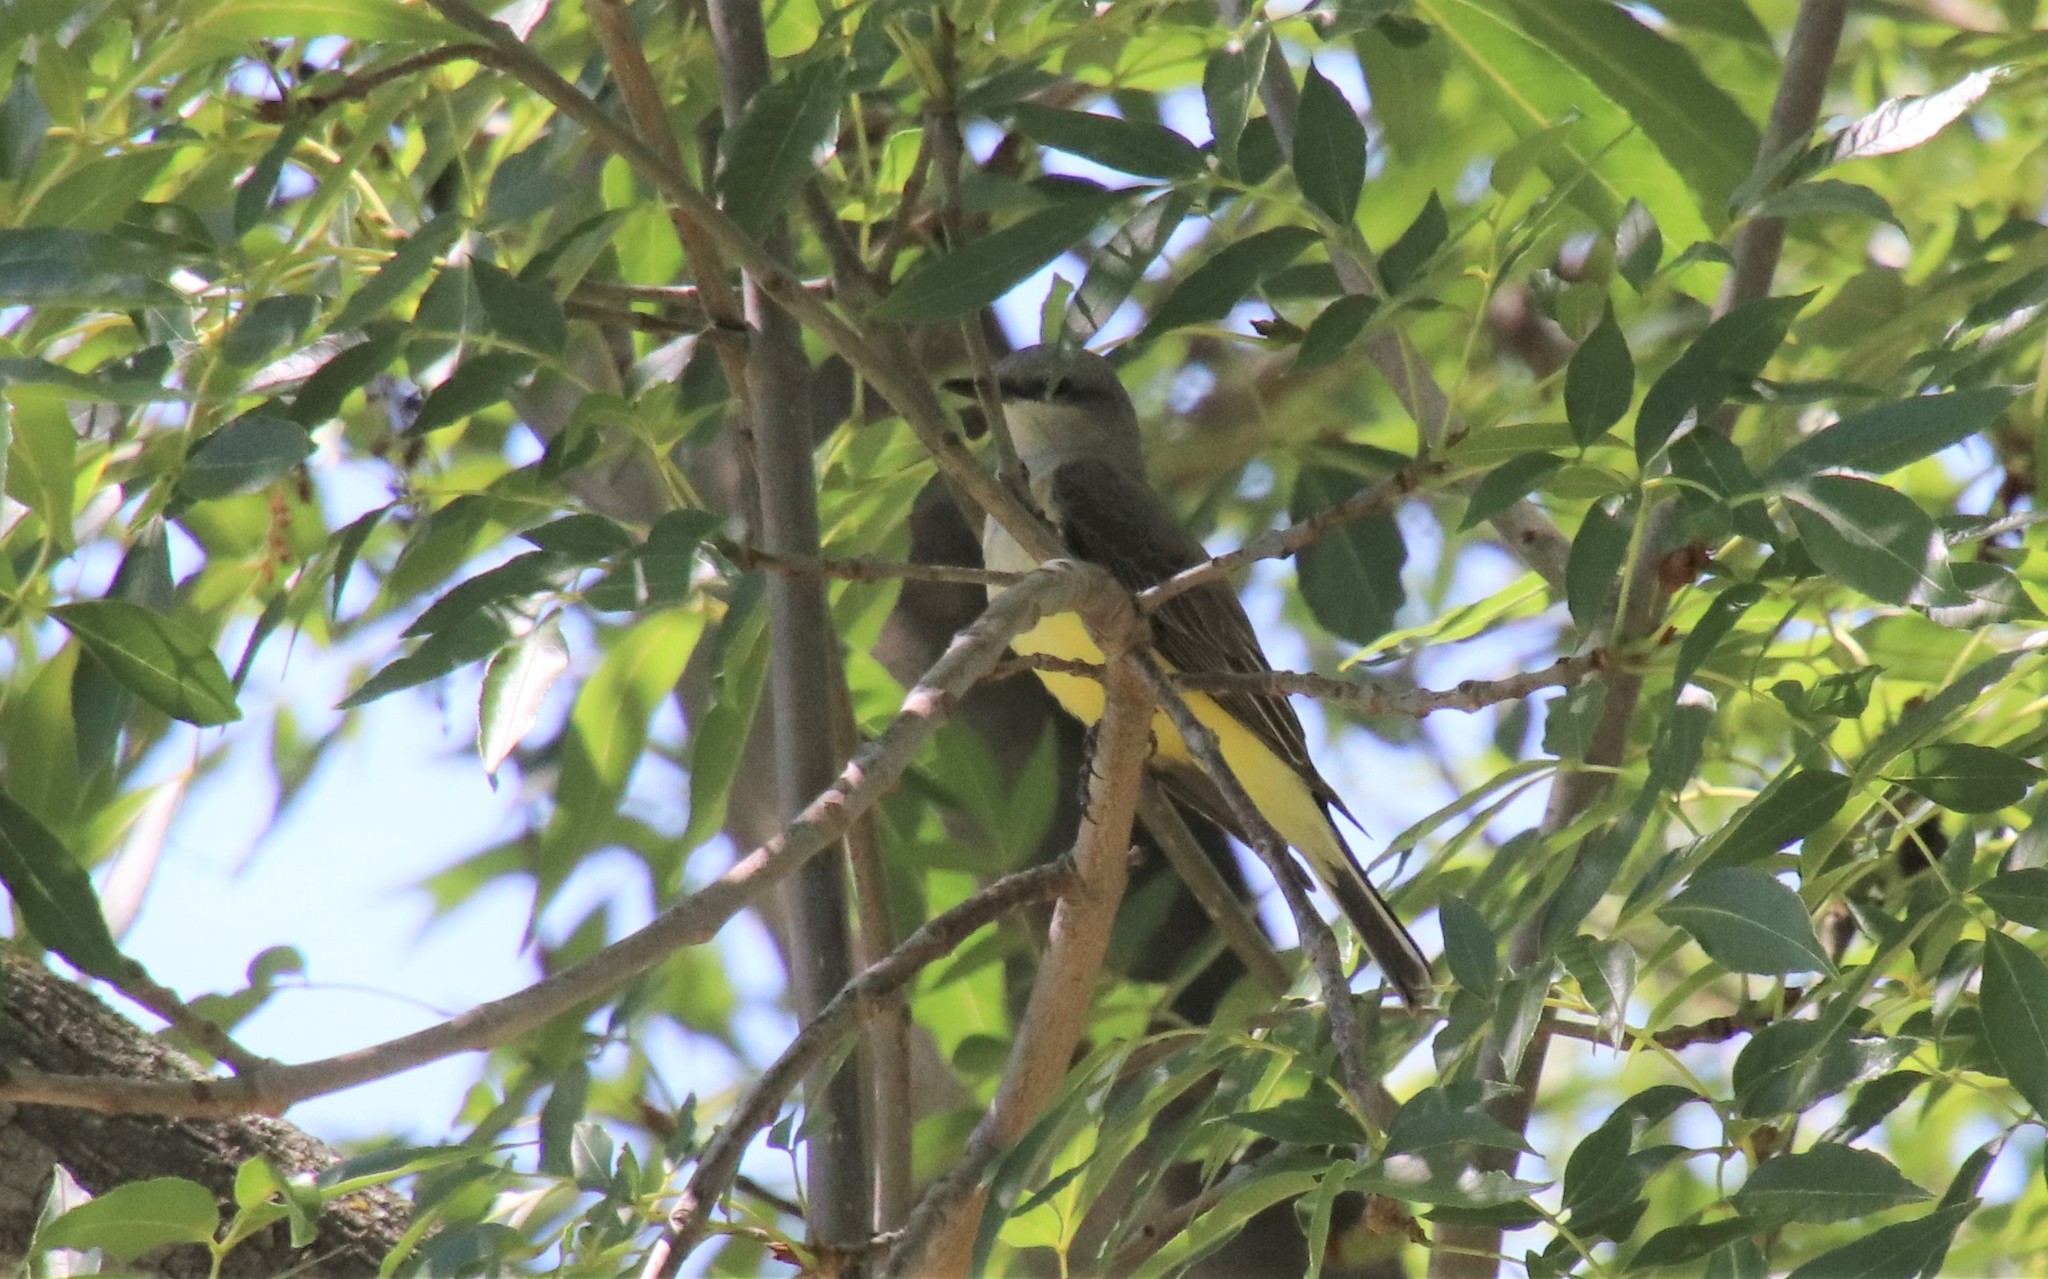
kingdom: Animalia
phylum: Chordata
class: Aves
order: Passeriformes
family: Tyrannidae
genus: Tyrannus
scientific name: Tyrannus verticalis
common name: Western kingbird
